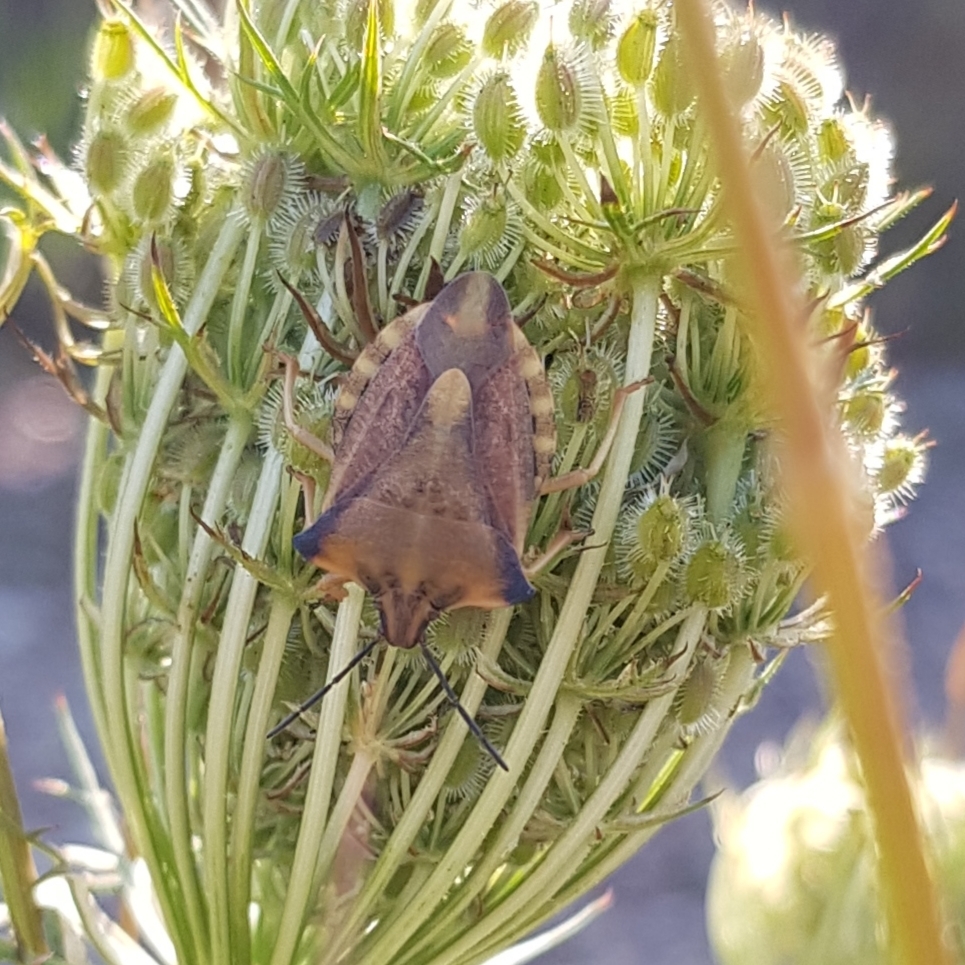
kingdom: Animalia
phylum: Arthropoda
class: Insecta
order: Hemiptera
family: Pentatomidae
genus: Carpocoris
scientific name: Carpocoris fuscispinus
